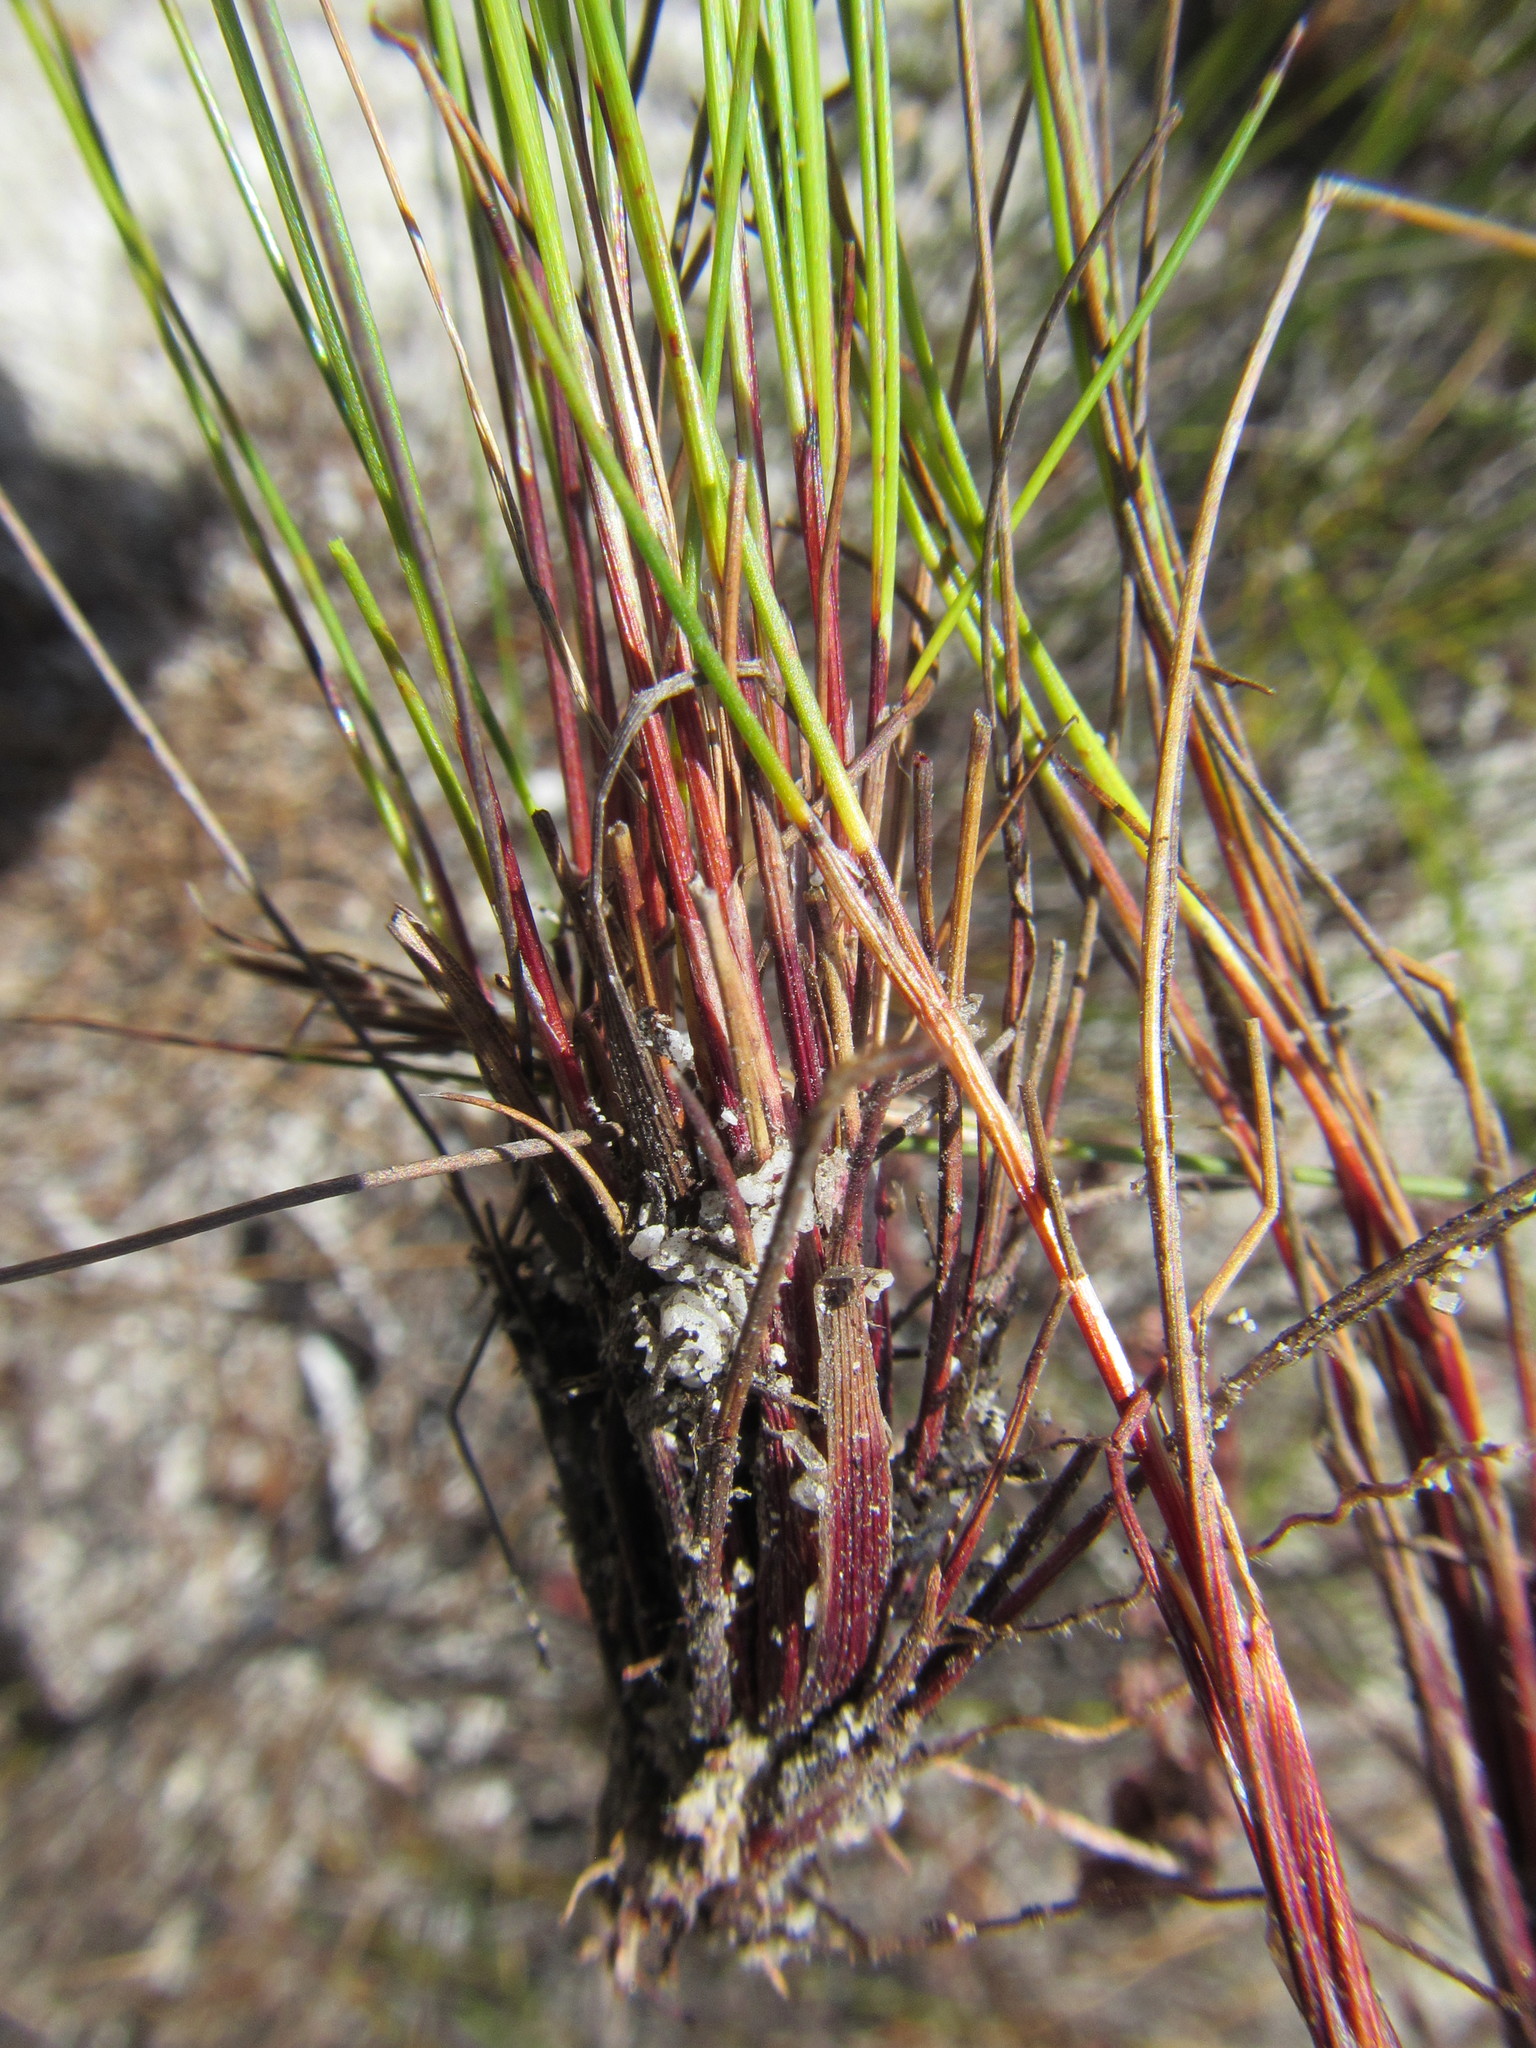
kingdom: Plantae
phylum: Tracheophyta
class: Liliopsida
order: Poales
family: Cyperaceae
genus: Schoenus
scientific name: Schoenus exilis
